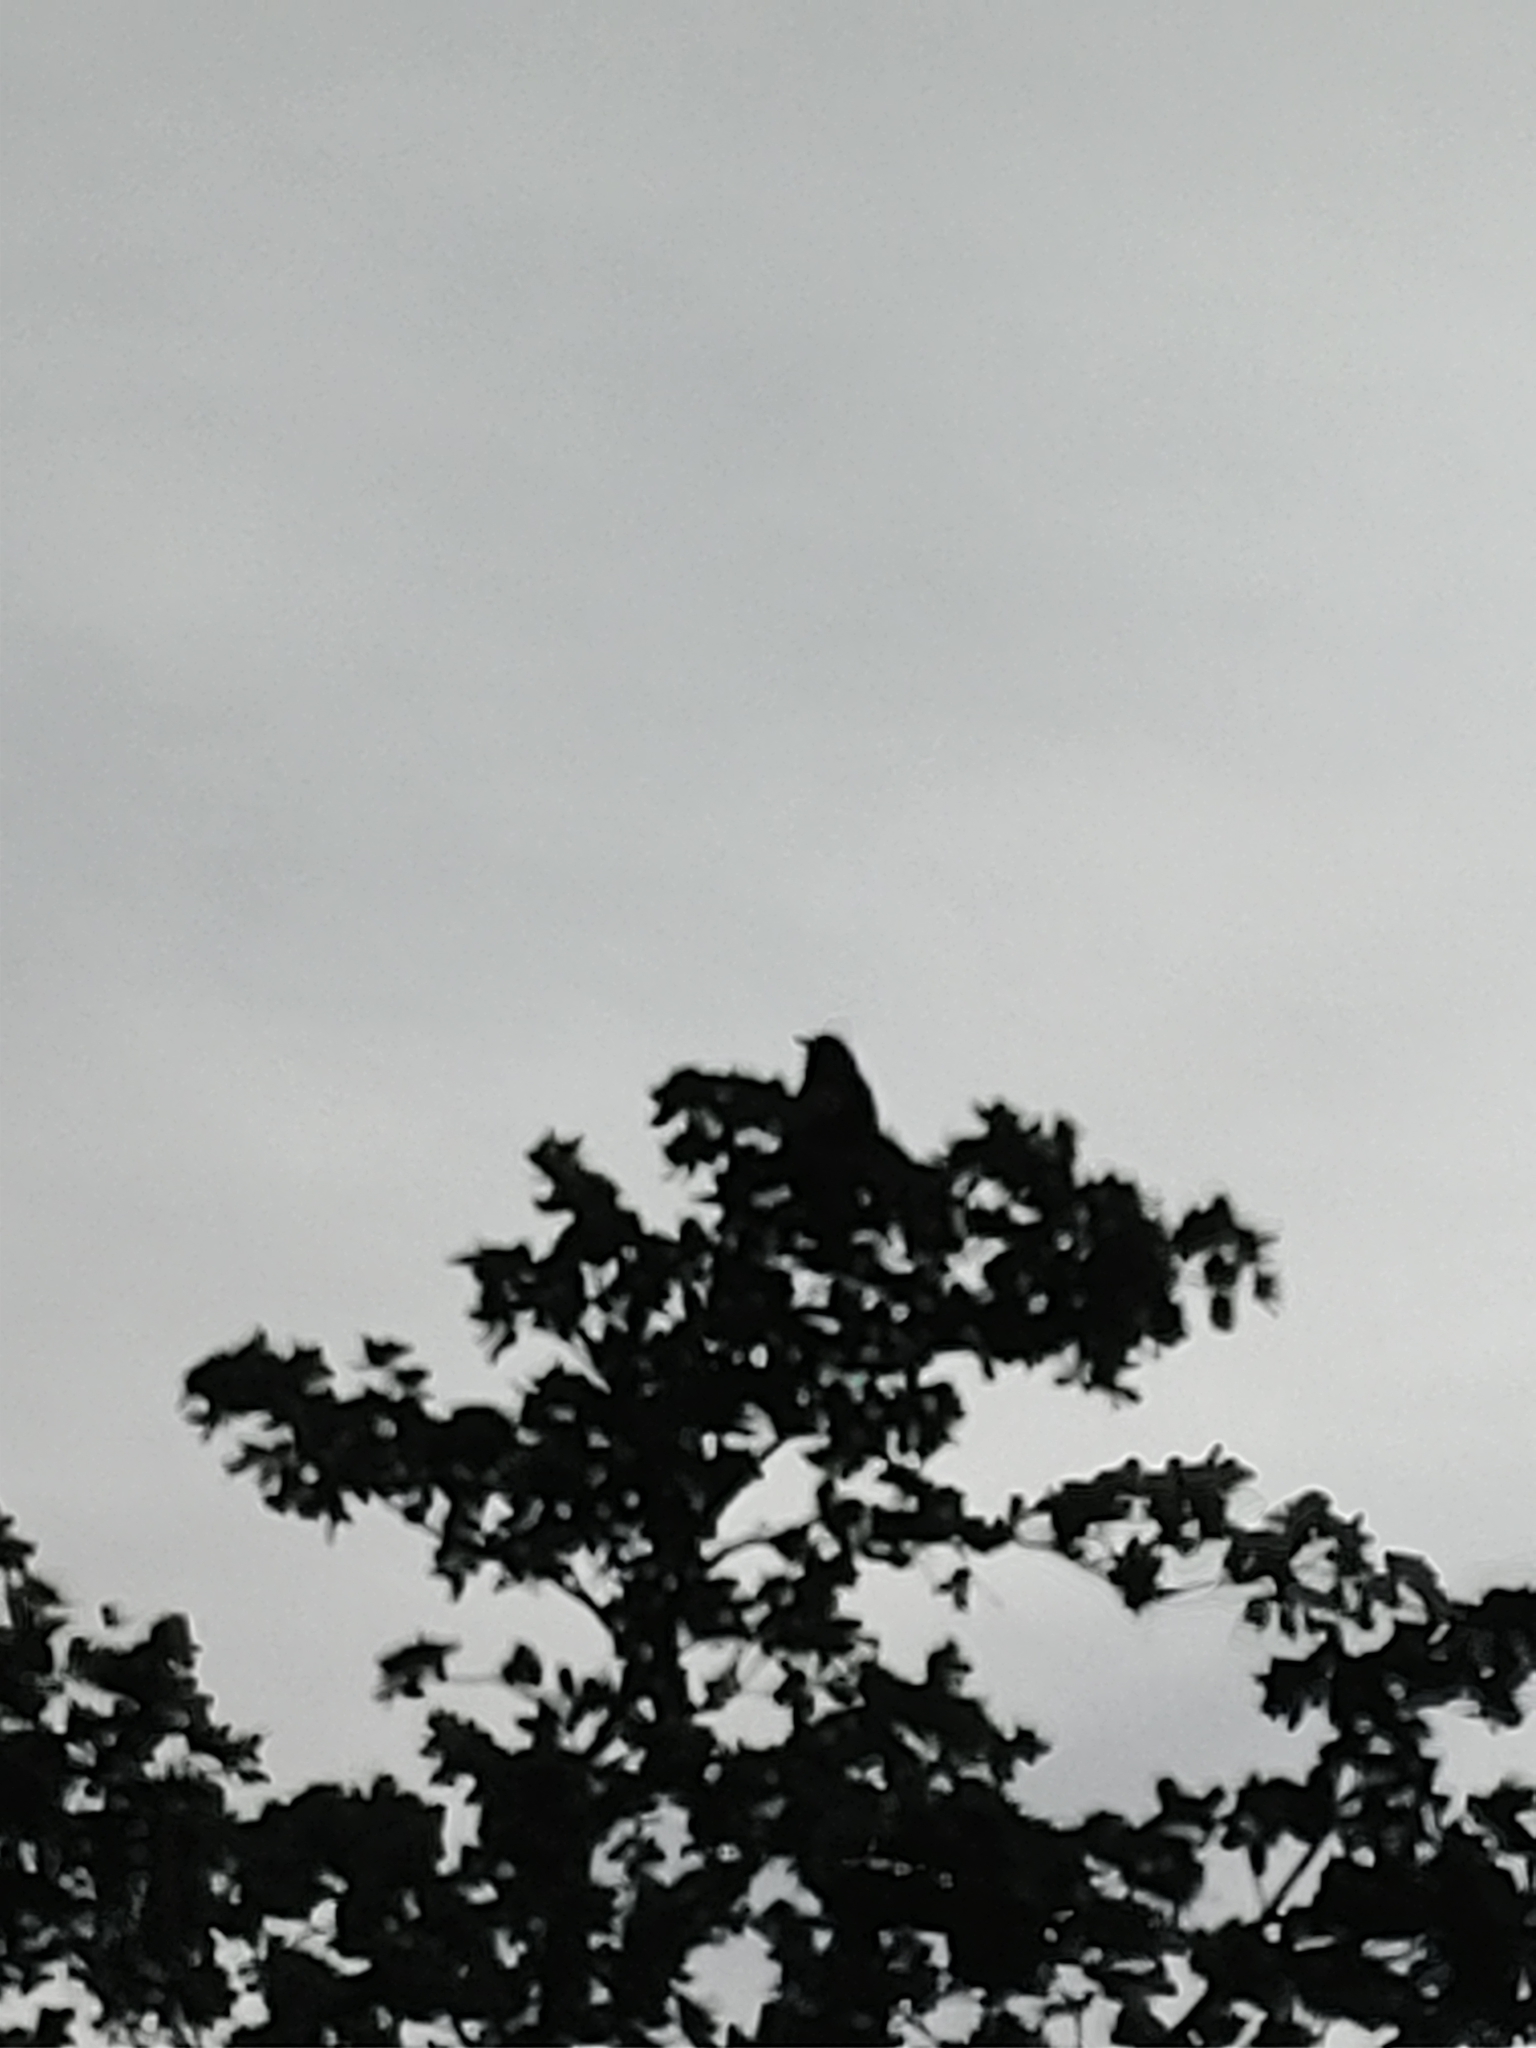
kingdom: Animalia
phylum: Chordata
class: Aves
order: Passeriformes
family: Corvidae
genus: Corvus
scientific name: Corvus
